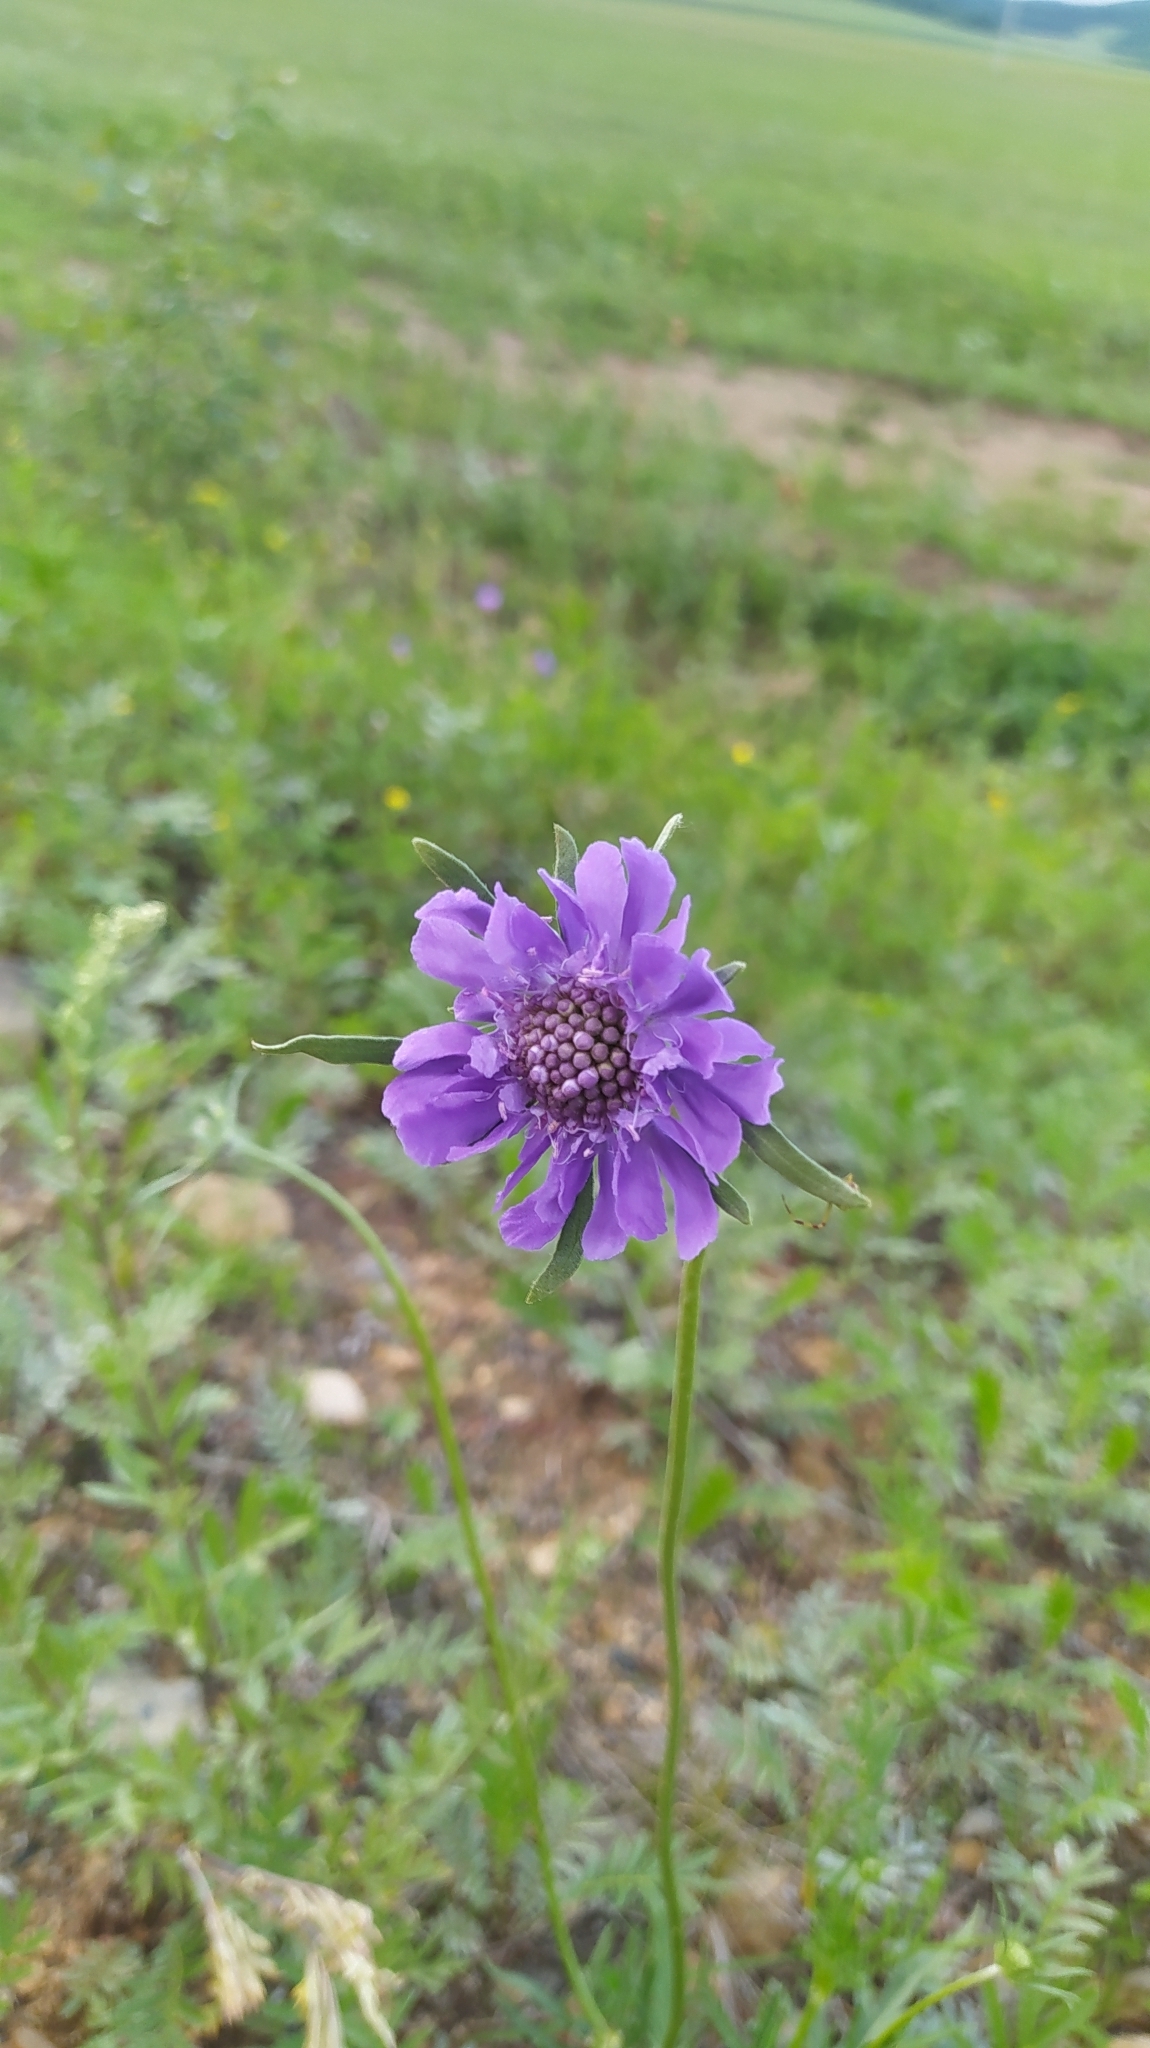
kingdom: Plantae
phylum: Tracheophyta
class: Magnoliopsida
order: Dipsacales
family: Caprifoliaceae
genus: Scabiosa
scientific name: Scabiosa comosa
